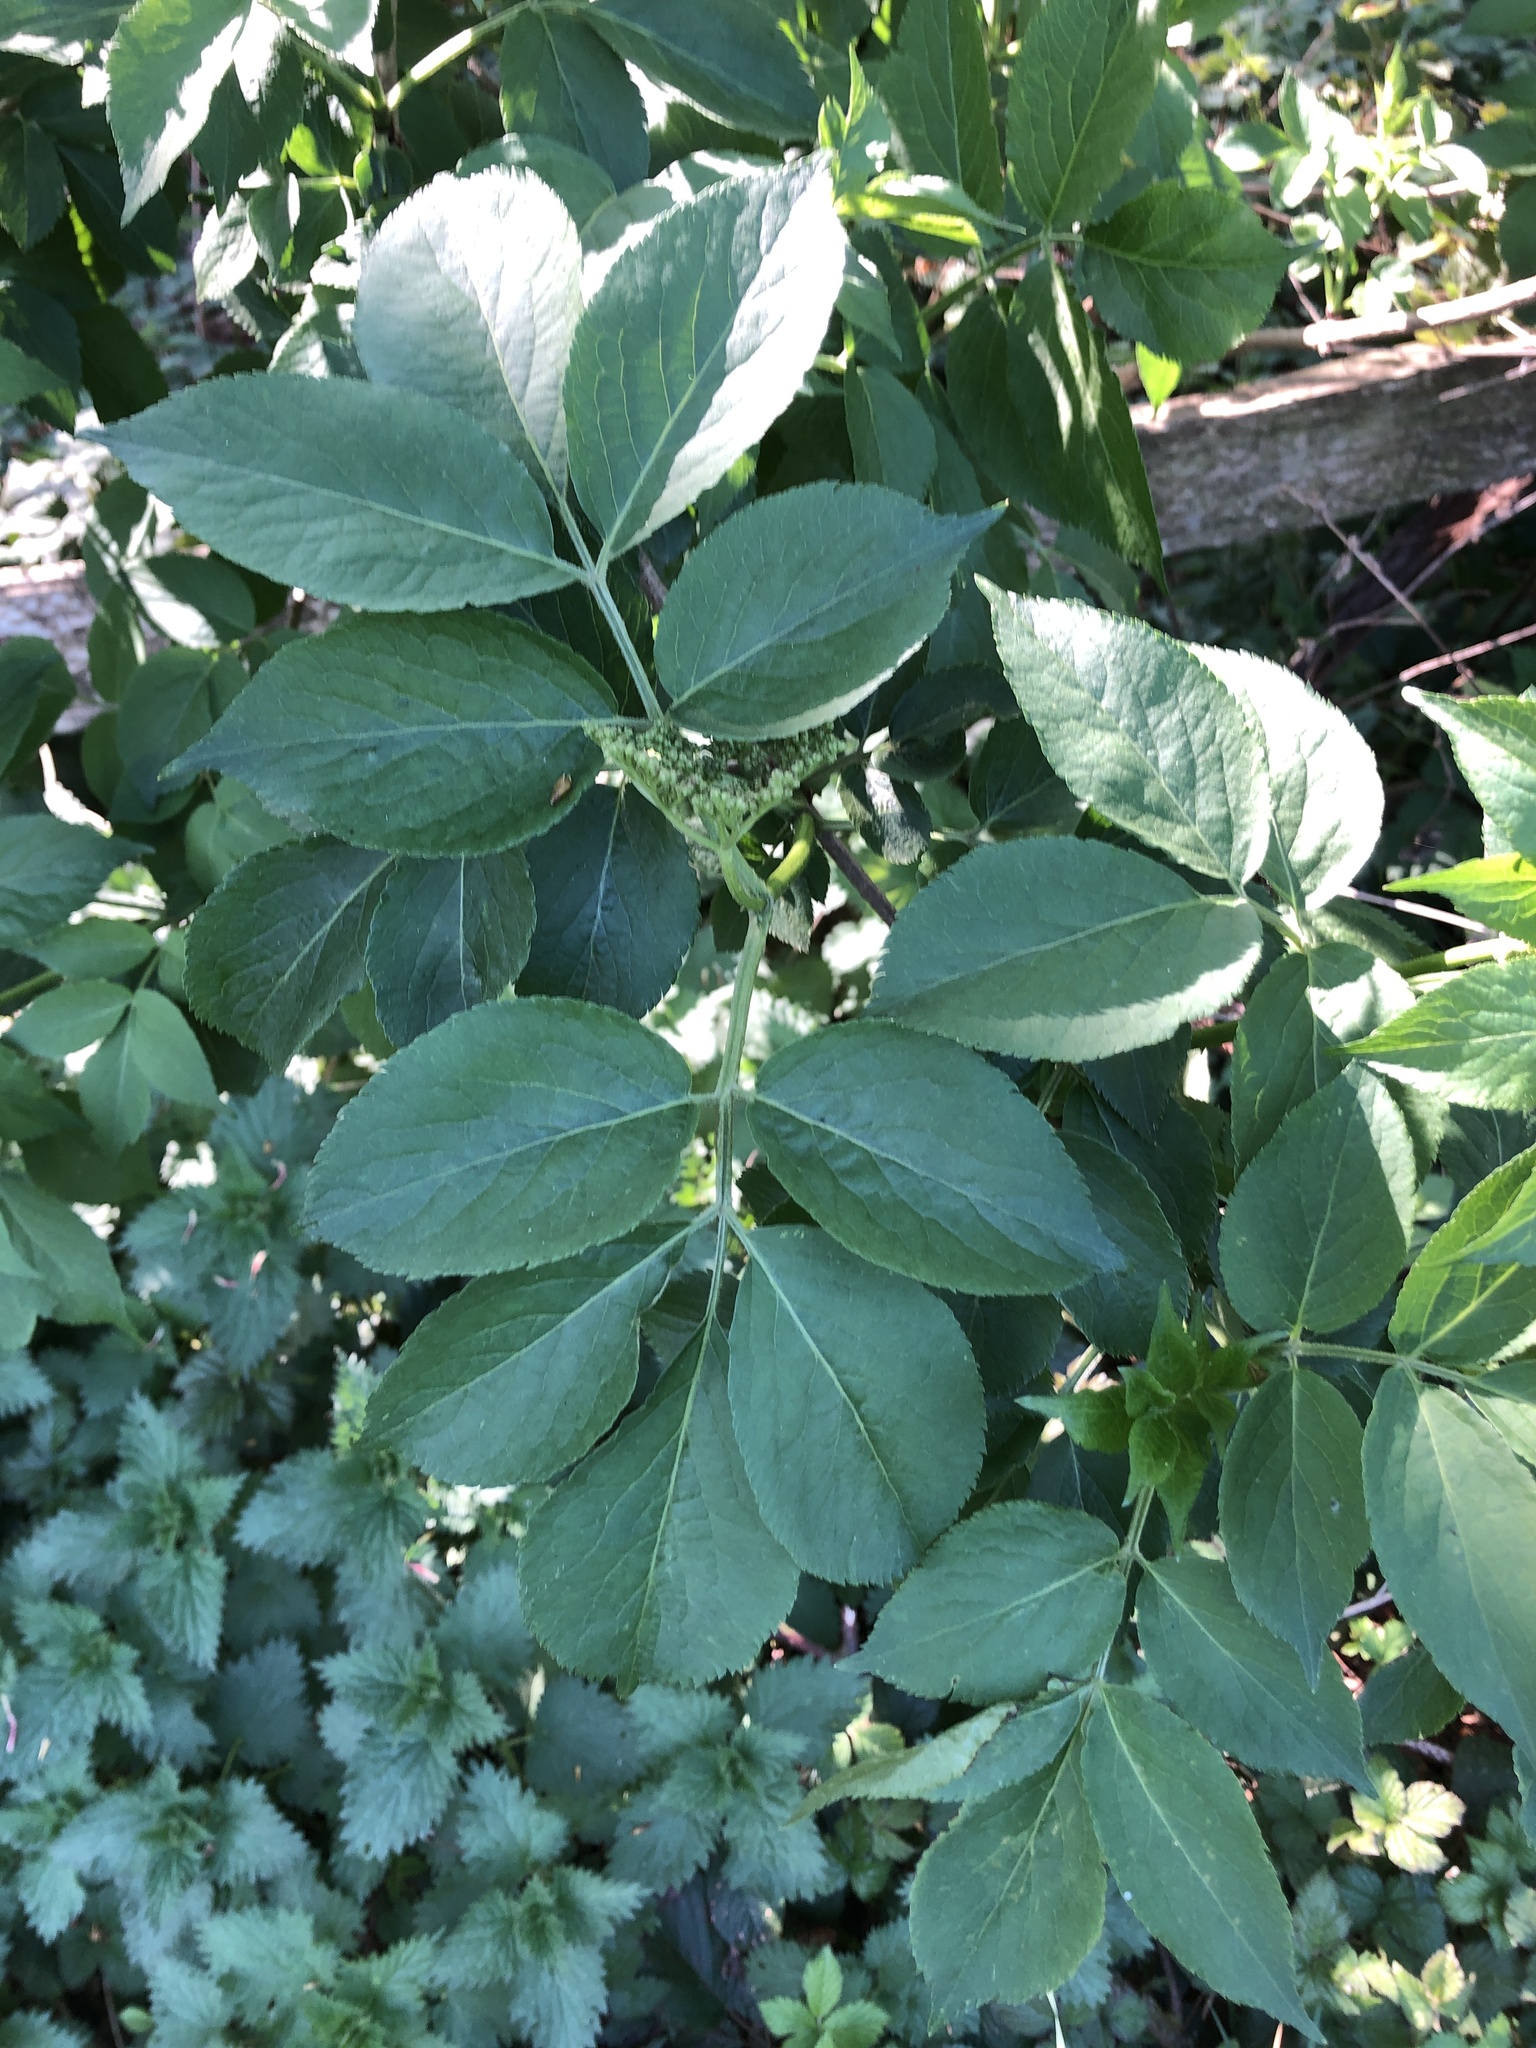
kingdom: Plantae
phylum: Tracheophyta
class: Magnoliopsida
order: Dipsacales
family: Viburnaceae
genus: Sambucus
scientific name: Sambucus nigra
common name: Elder
